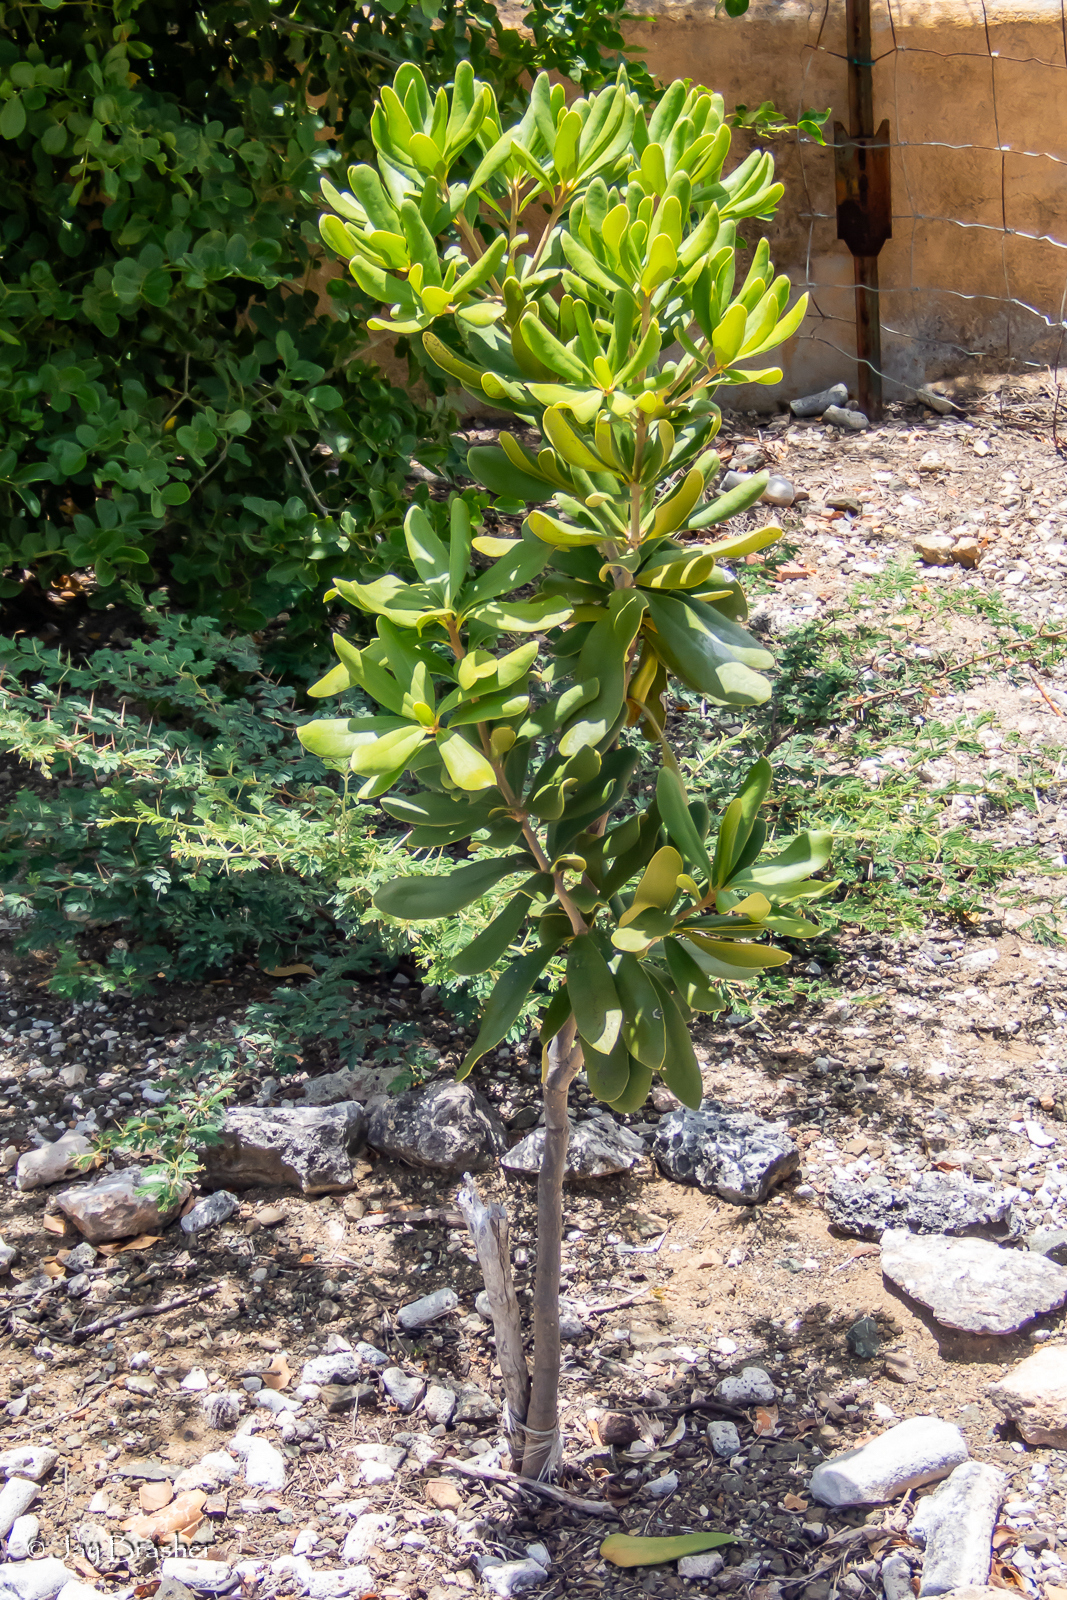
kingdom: Plantae
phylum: Tracheophyta
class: Magnoliopsida
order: Ericales
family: Primulaceae
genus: Jacquinia
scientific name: Jacquinia arborea
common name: Barceletwood
